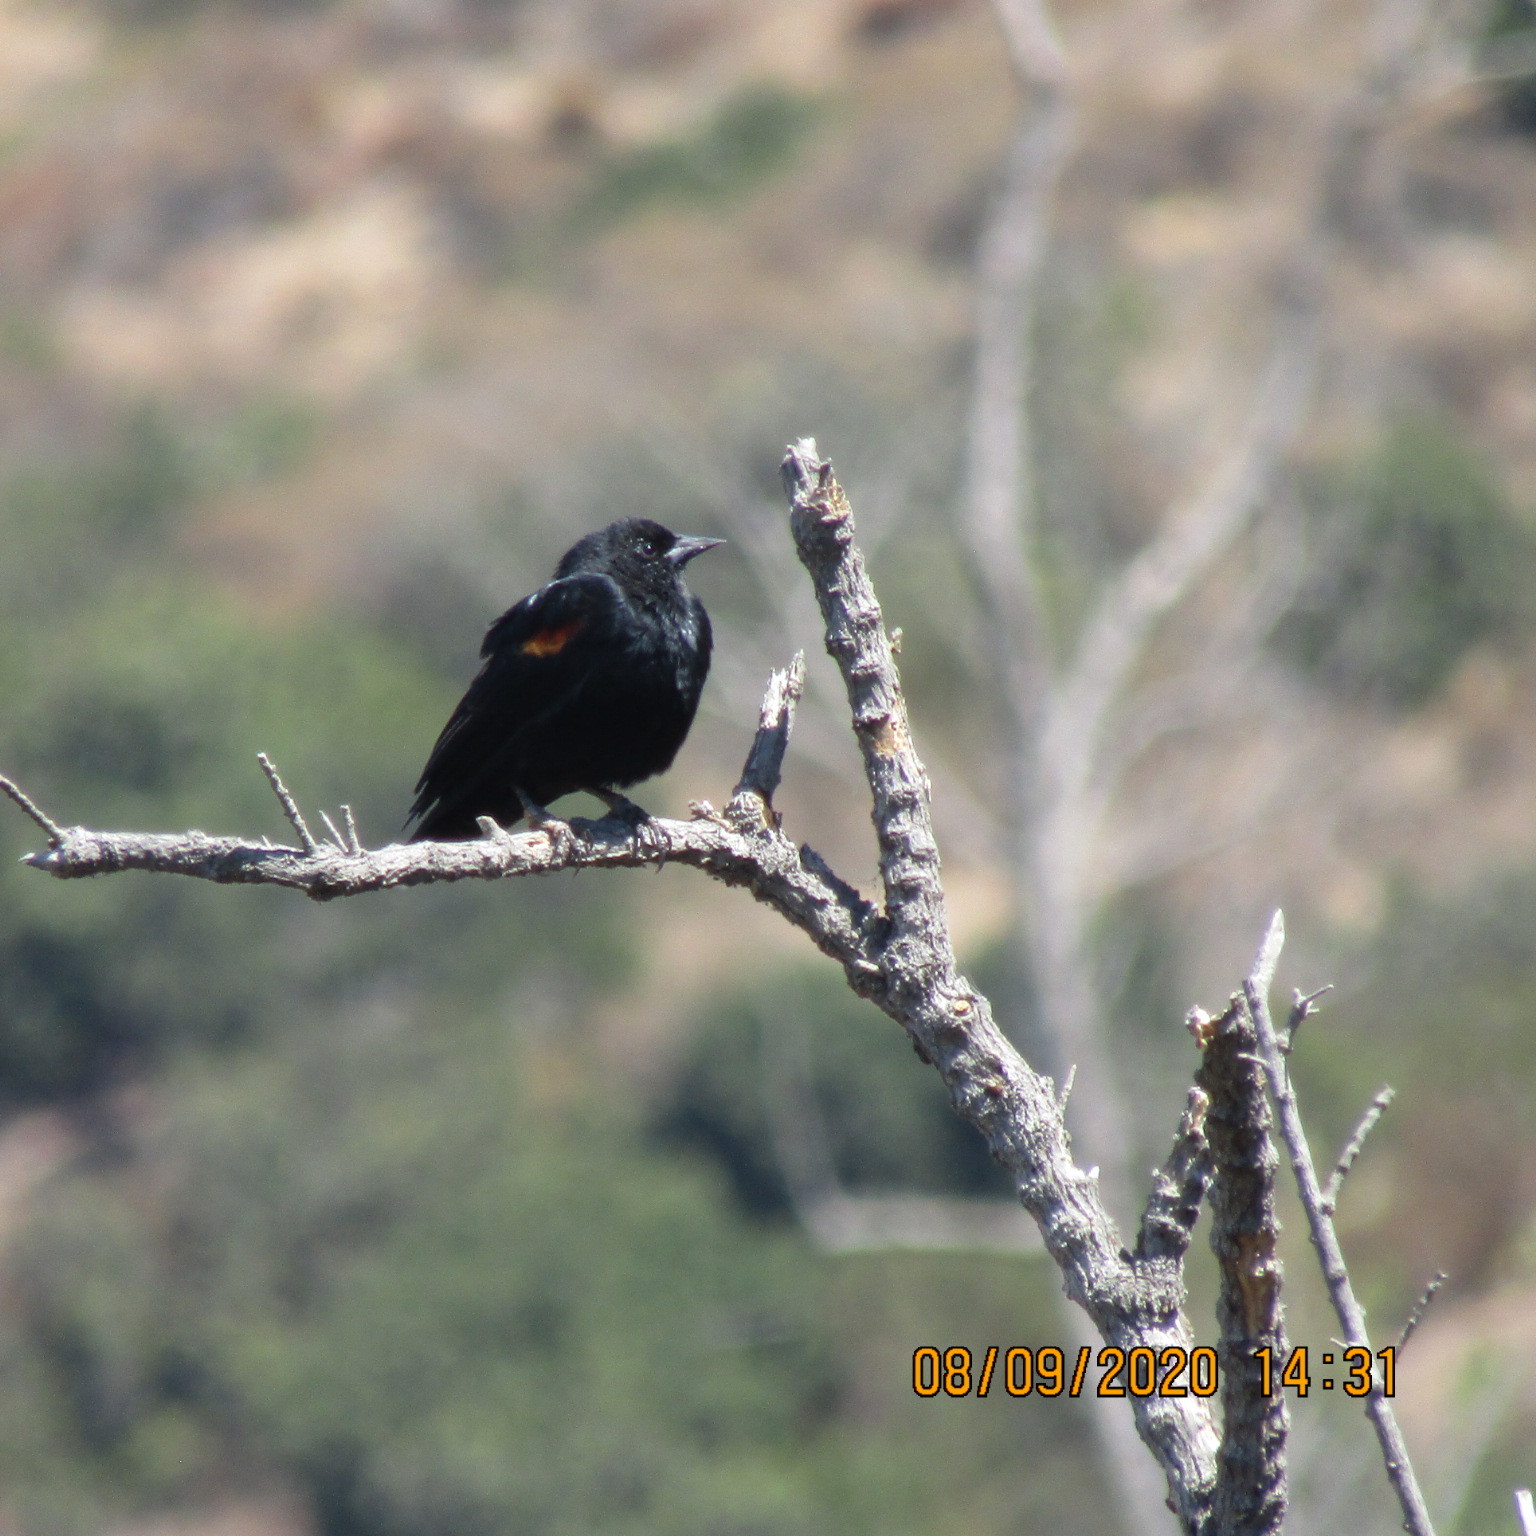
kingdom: Animalia
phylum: Chordata
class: Aves
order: Passeriformes
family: Icteridae
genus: Agelaius
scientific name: Agelaius phoeniceus
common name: Red-winged blackbird
